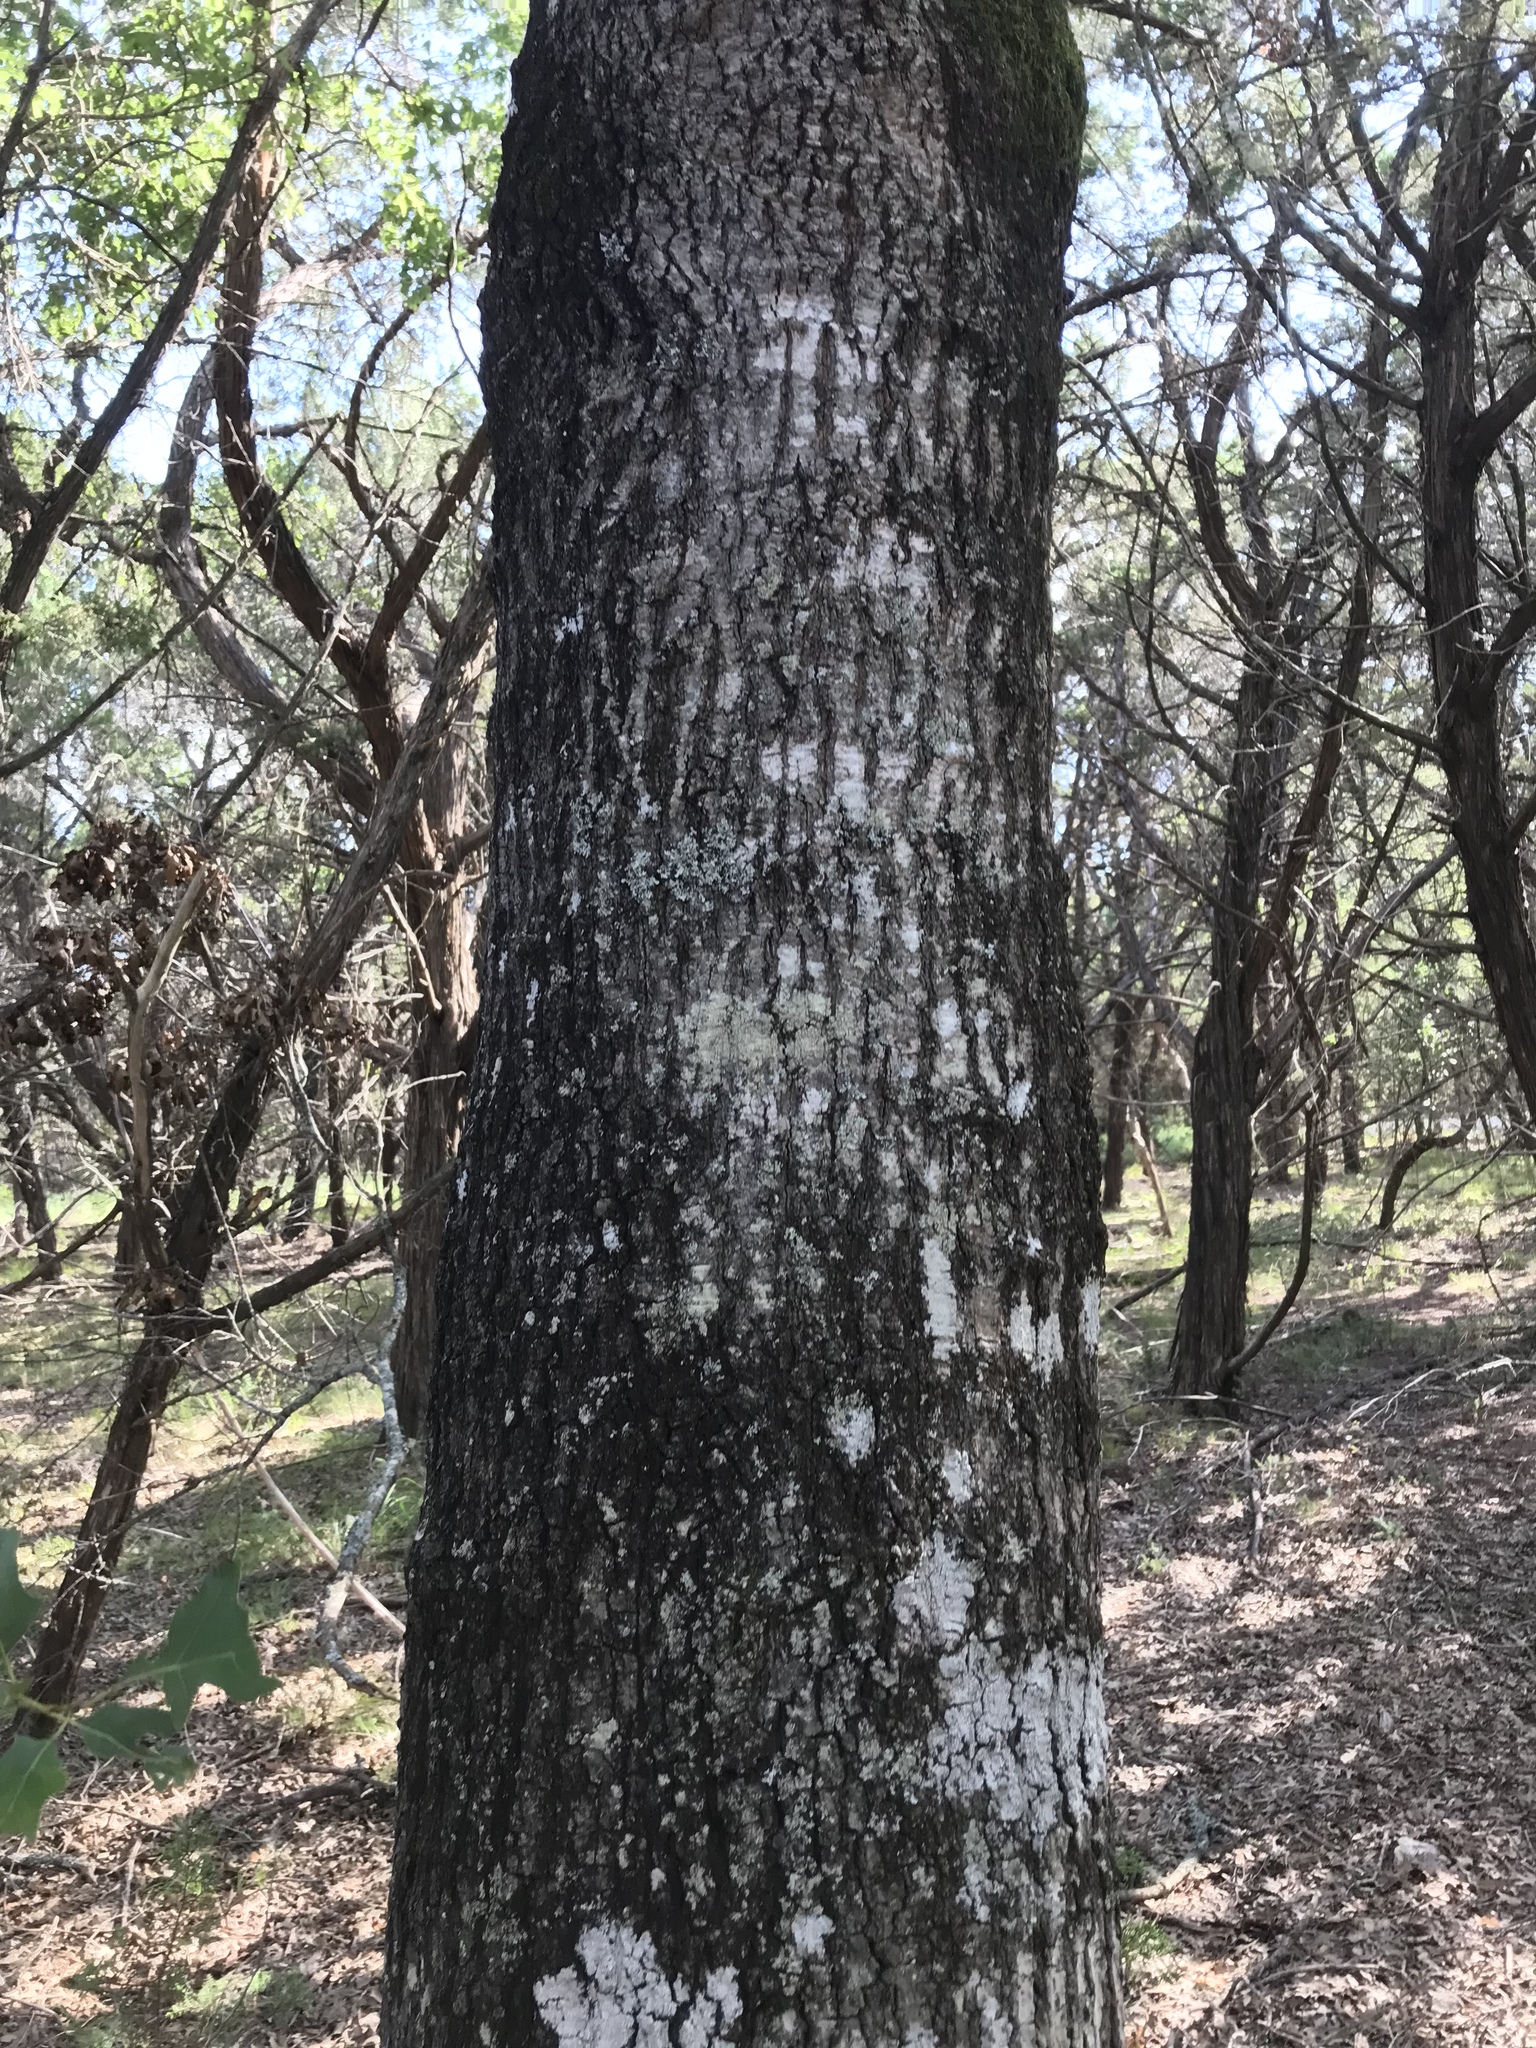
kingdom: Plantae
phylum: Tracheophyta
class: Magnoliopsida
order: Fagales
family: Fagaceae
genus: Quercus
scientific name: Quercus buckleyi
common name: Buckley oak
